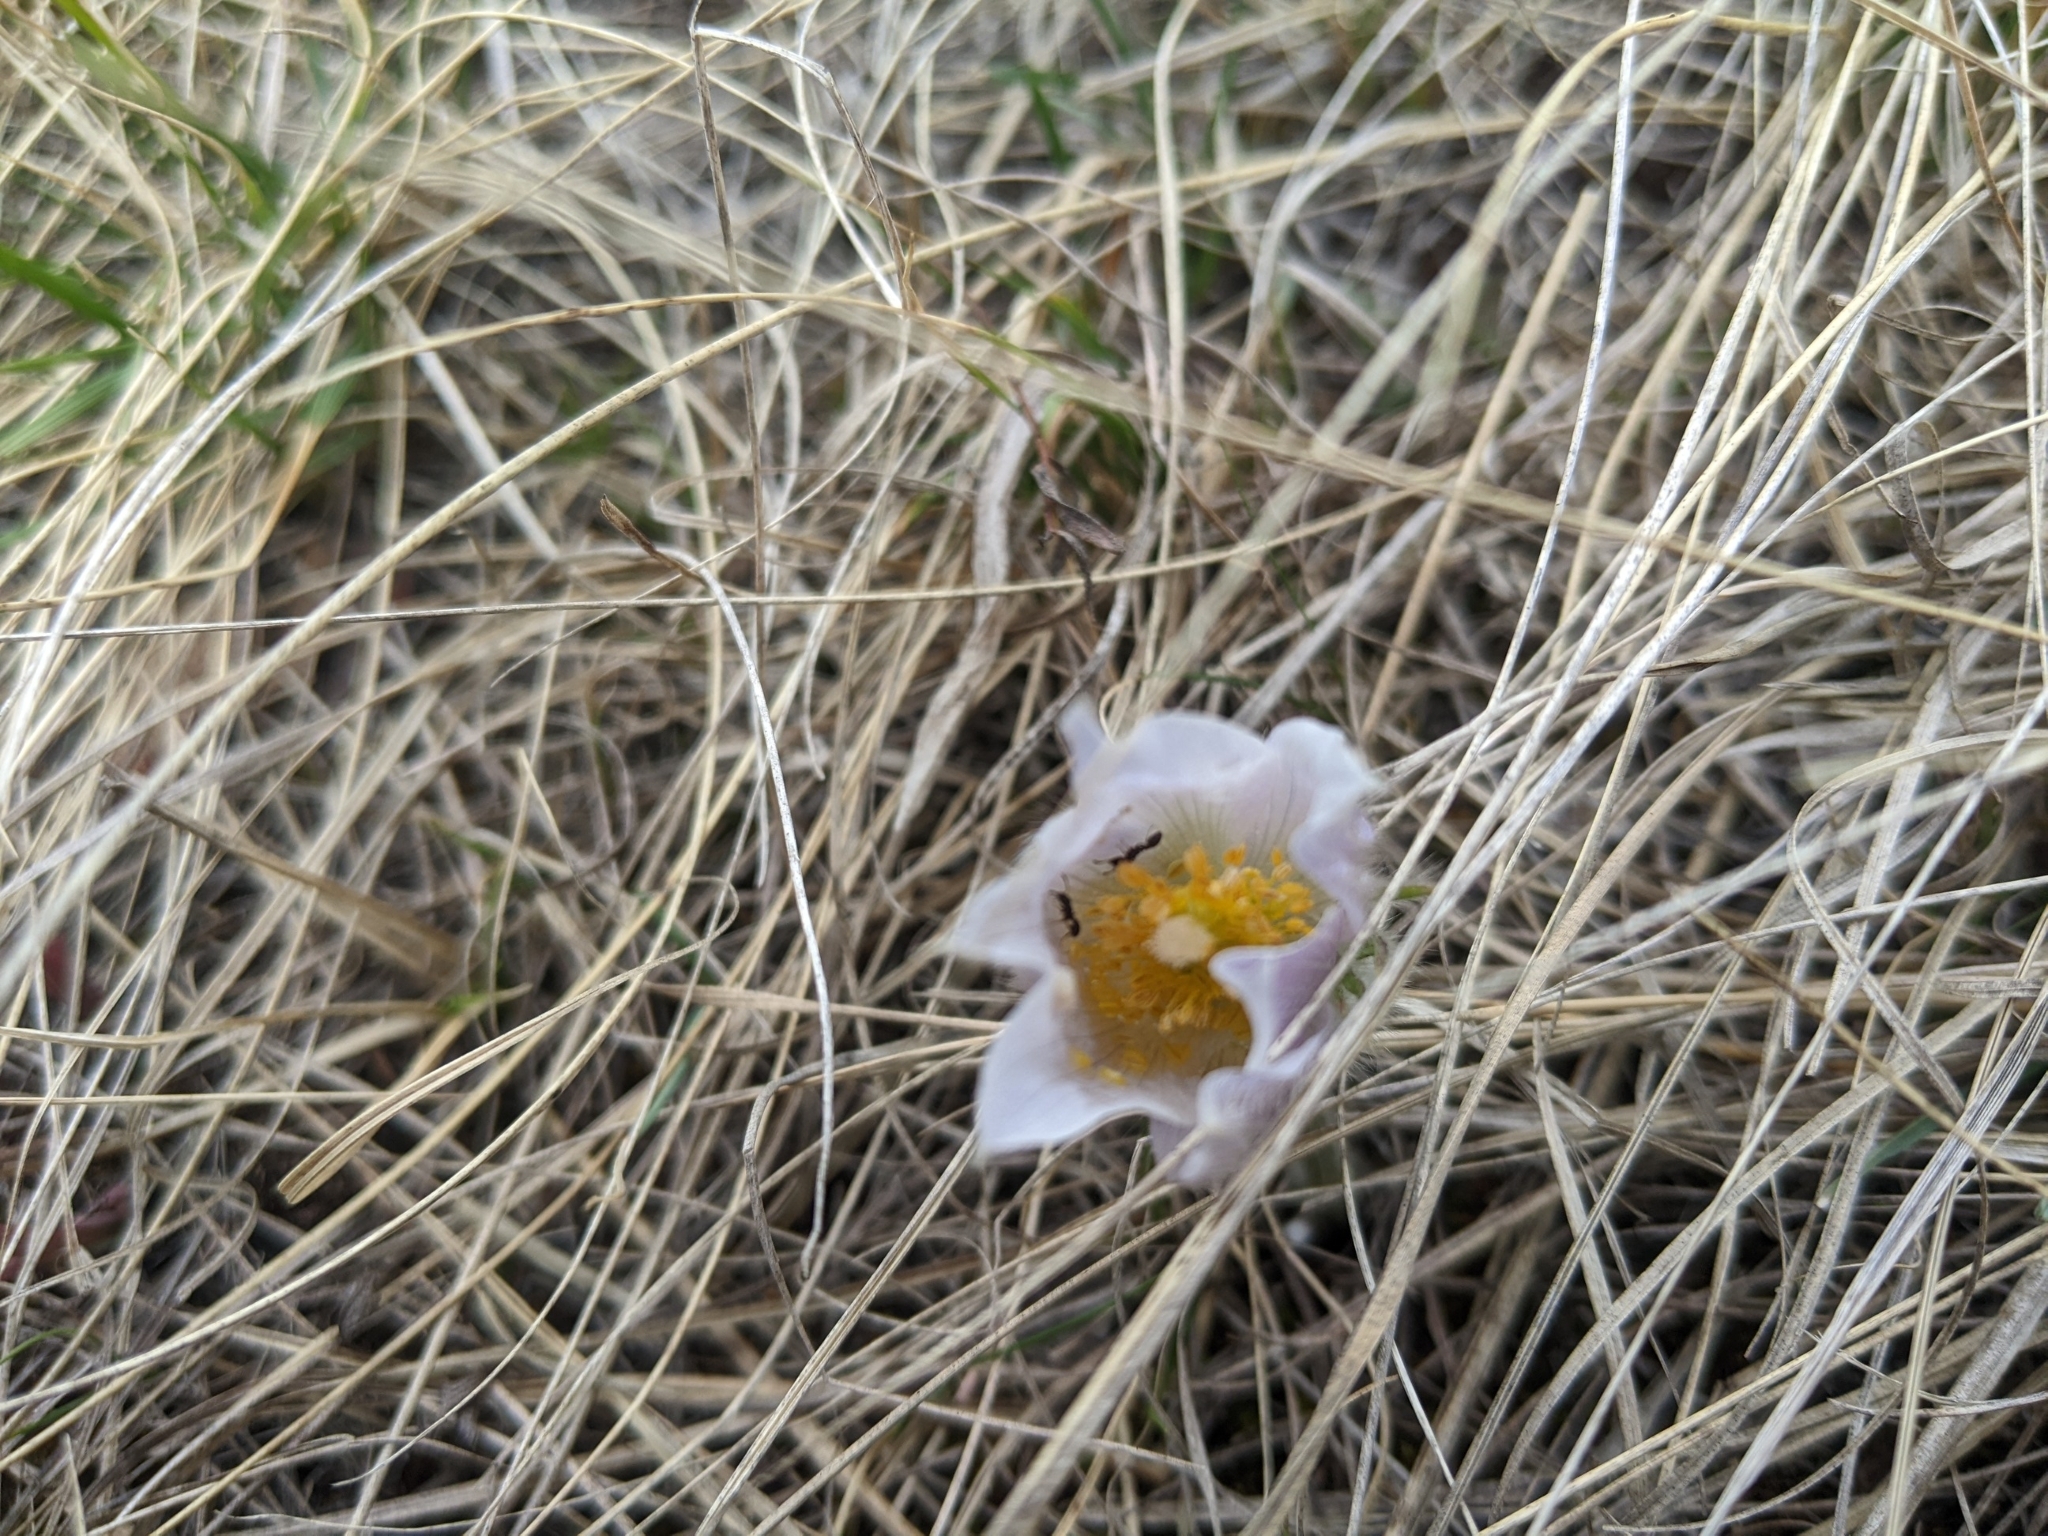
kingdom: Plantae
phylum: Tracheophyta
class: Magnoliopsida
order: Ranunculales
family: Ranunculaceae
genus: Pulsatilla
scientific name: Pulsatilla nuttalliana
